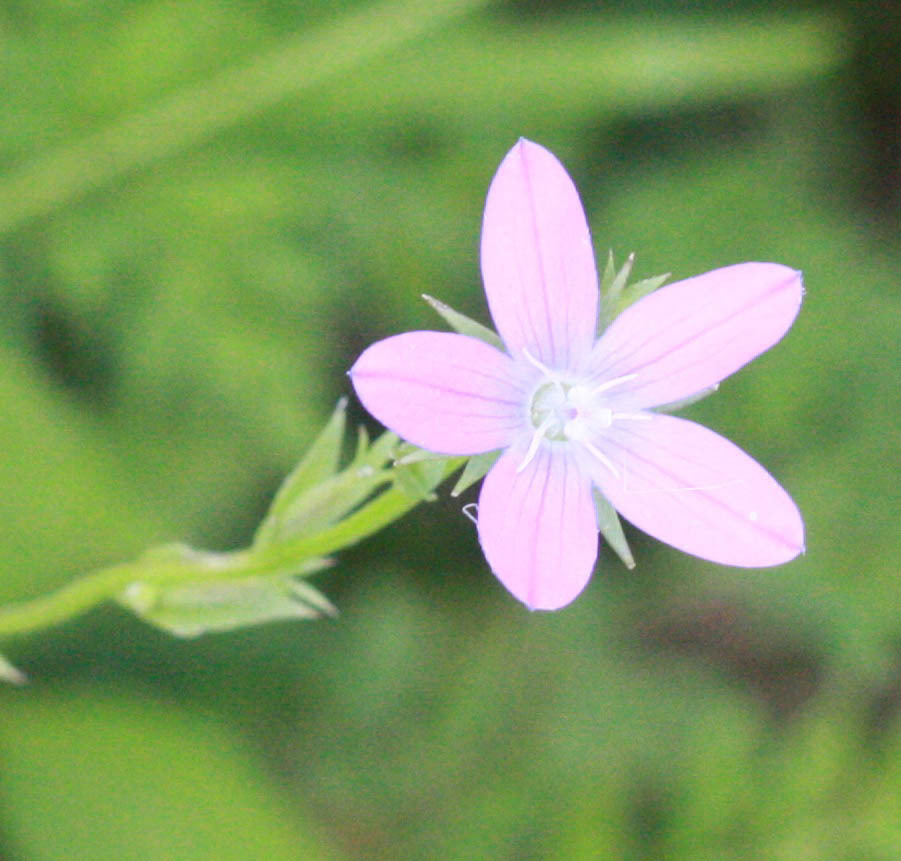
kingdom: Plantae
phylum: Tracheophyta
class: Magnoliopsida
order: Asterales
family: Campanulaceae
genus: Triodanis
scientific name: Triodanis perfoliata
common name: Clasping venus' looking-glass
